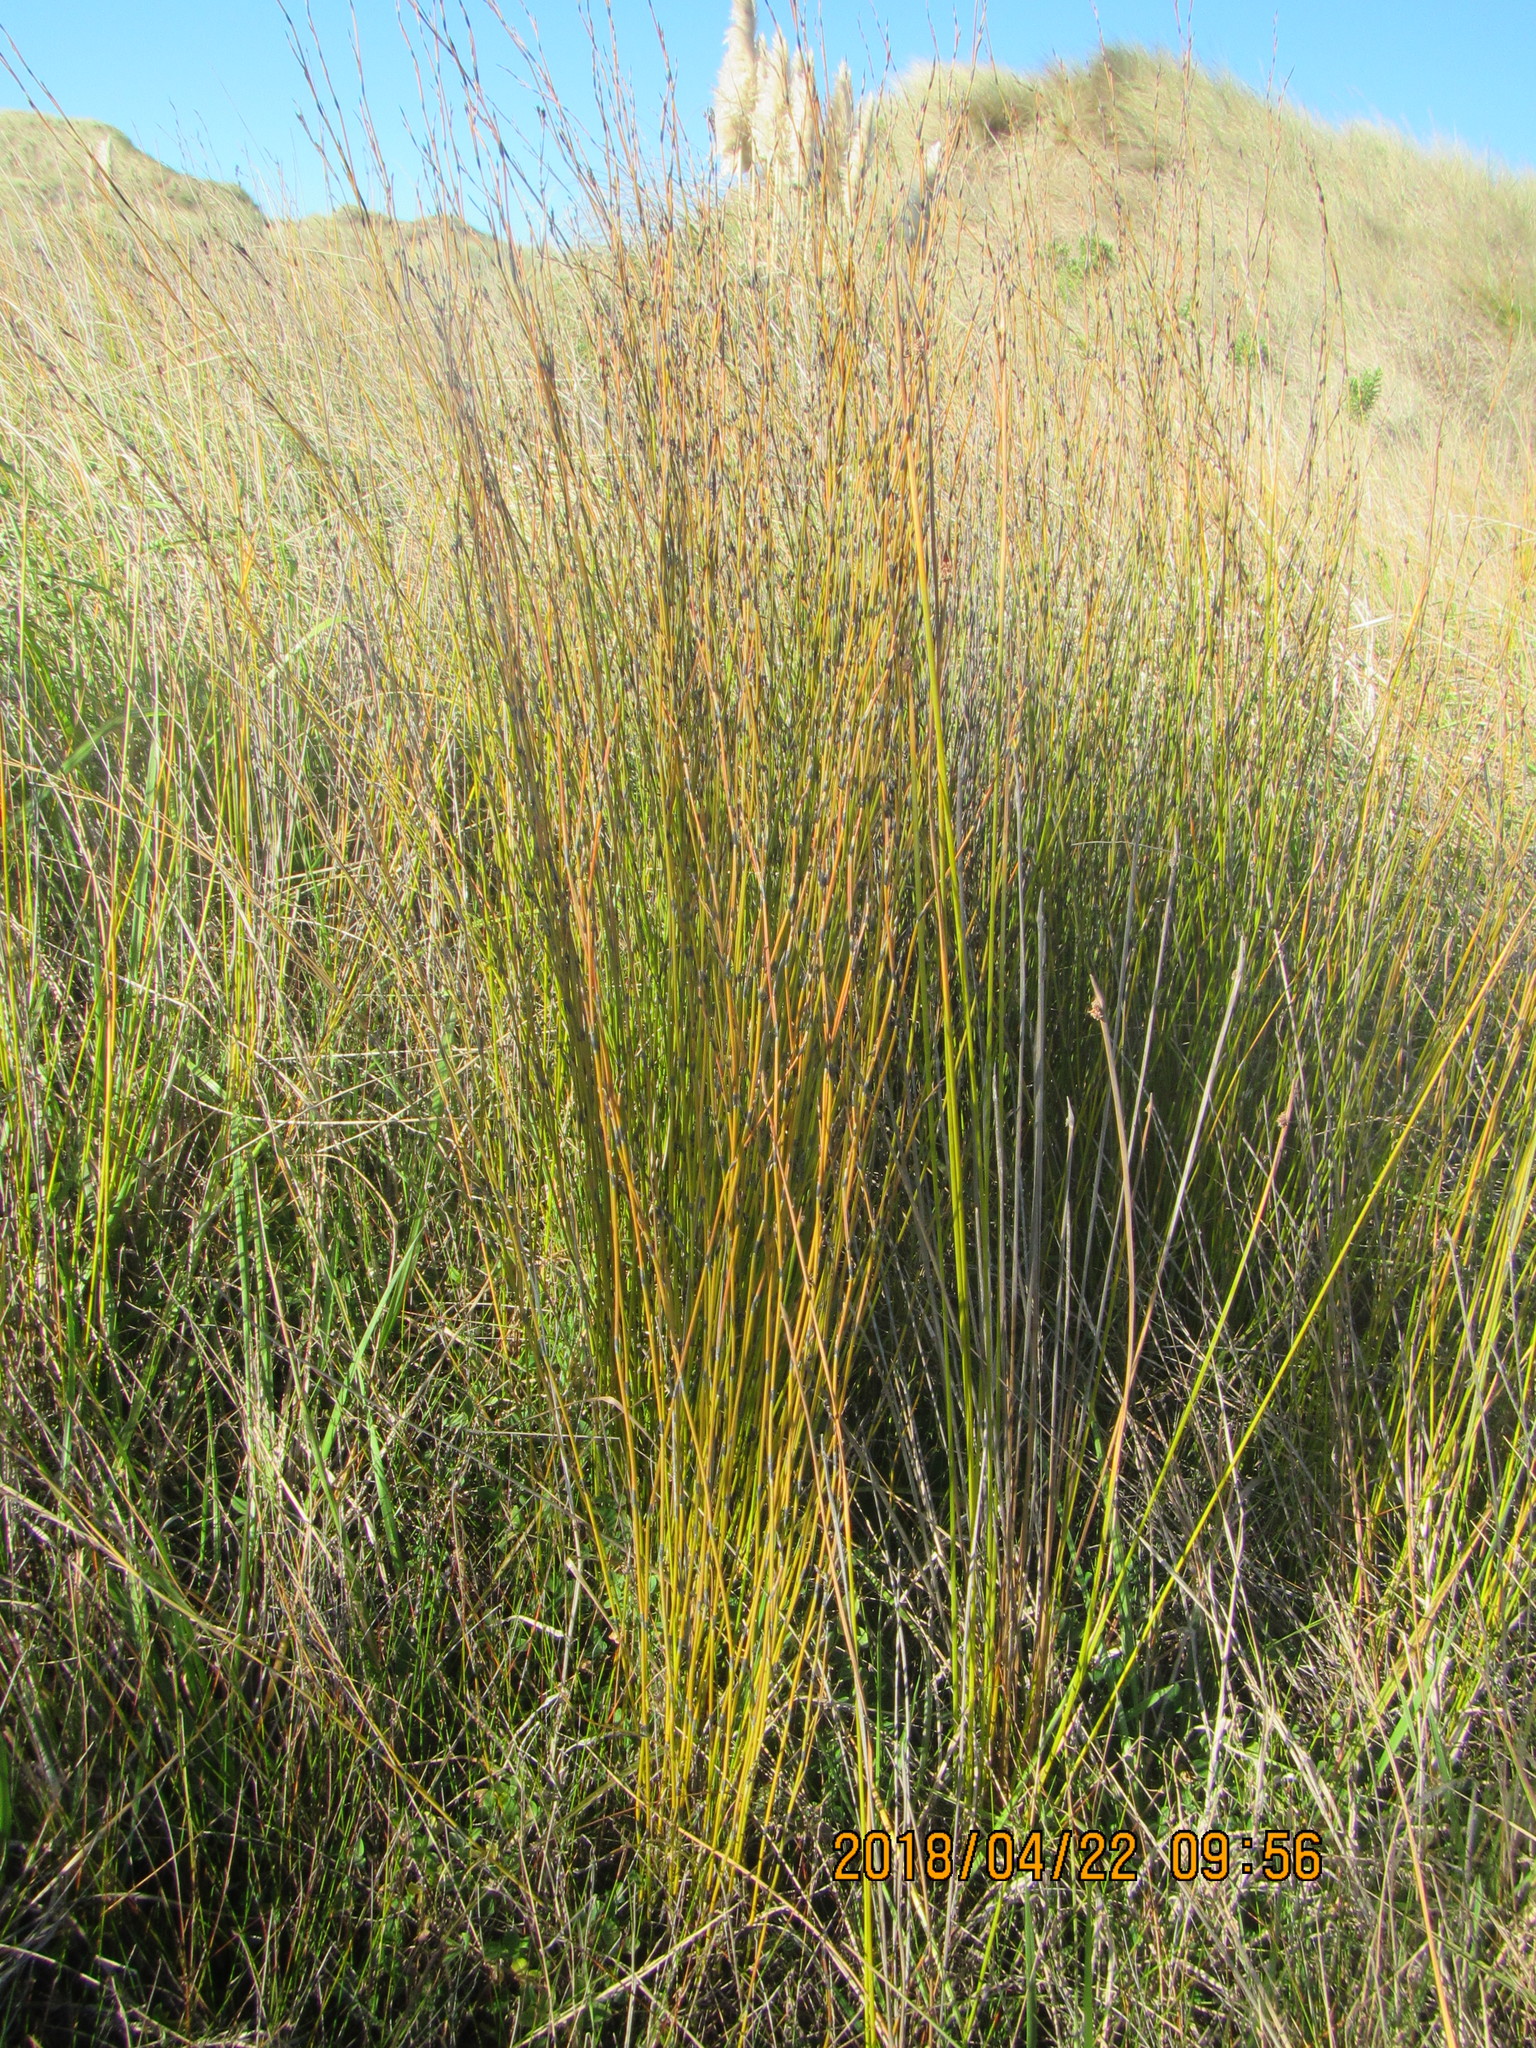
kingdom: Plantae
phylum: Tracheophyta
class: Liliopsida
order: Poales
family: Restionaceae
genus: Apodasmia
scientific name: Apodasmia similis
